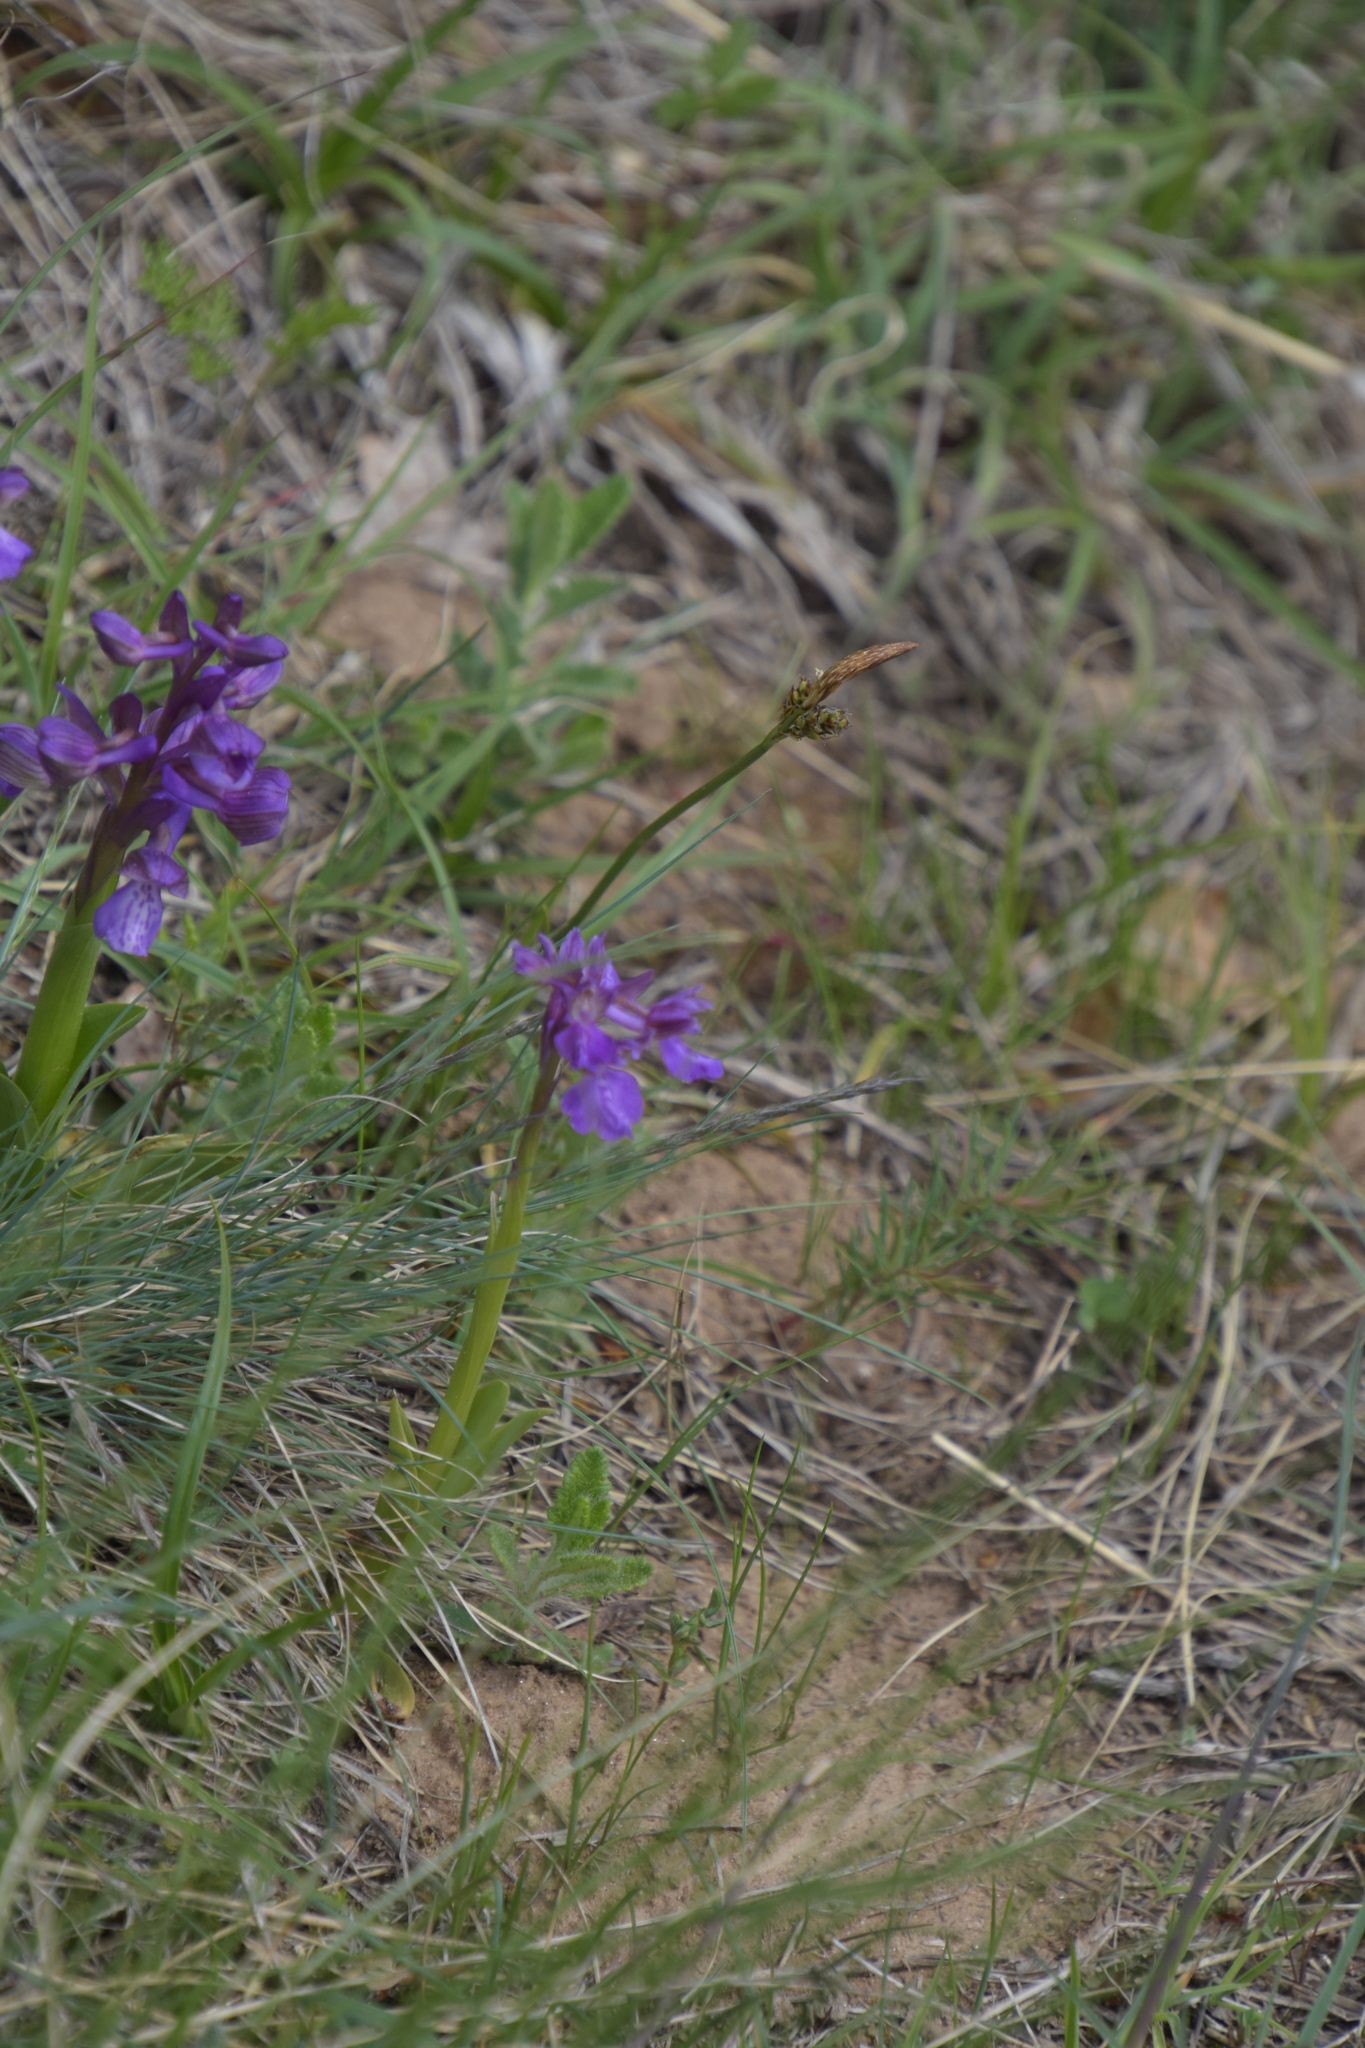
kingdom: Plantae
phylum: Tracheophyta
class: Liliopsida
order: Asparagales
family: Orchidaceae
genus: Anacamptis
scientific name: Anacamptis morio
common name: Green-winged orchid
